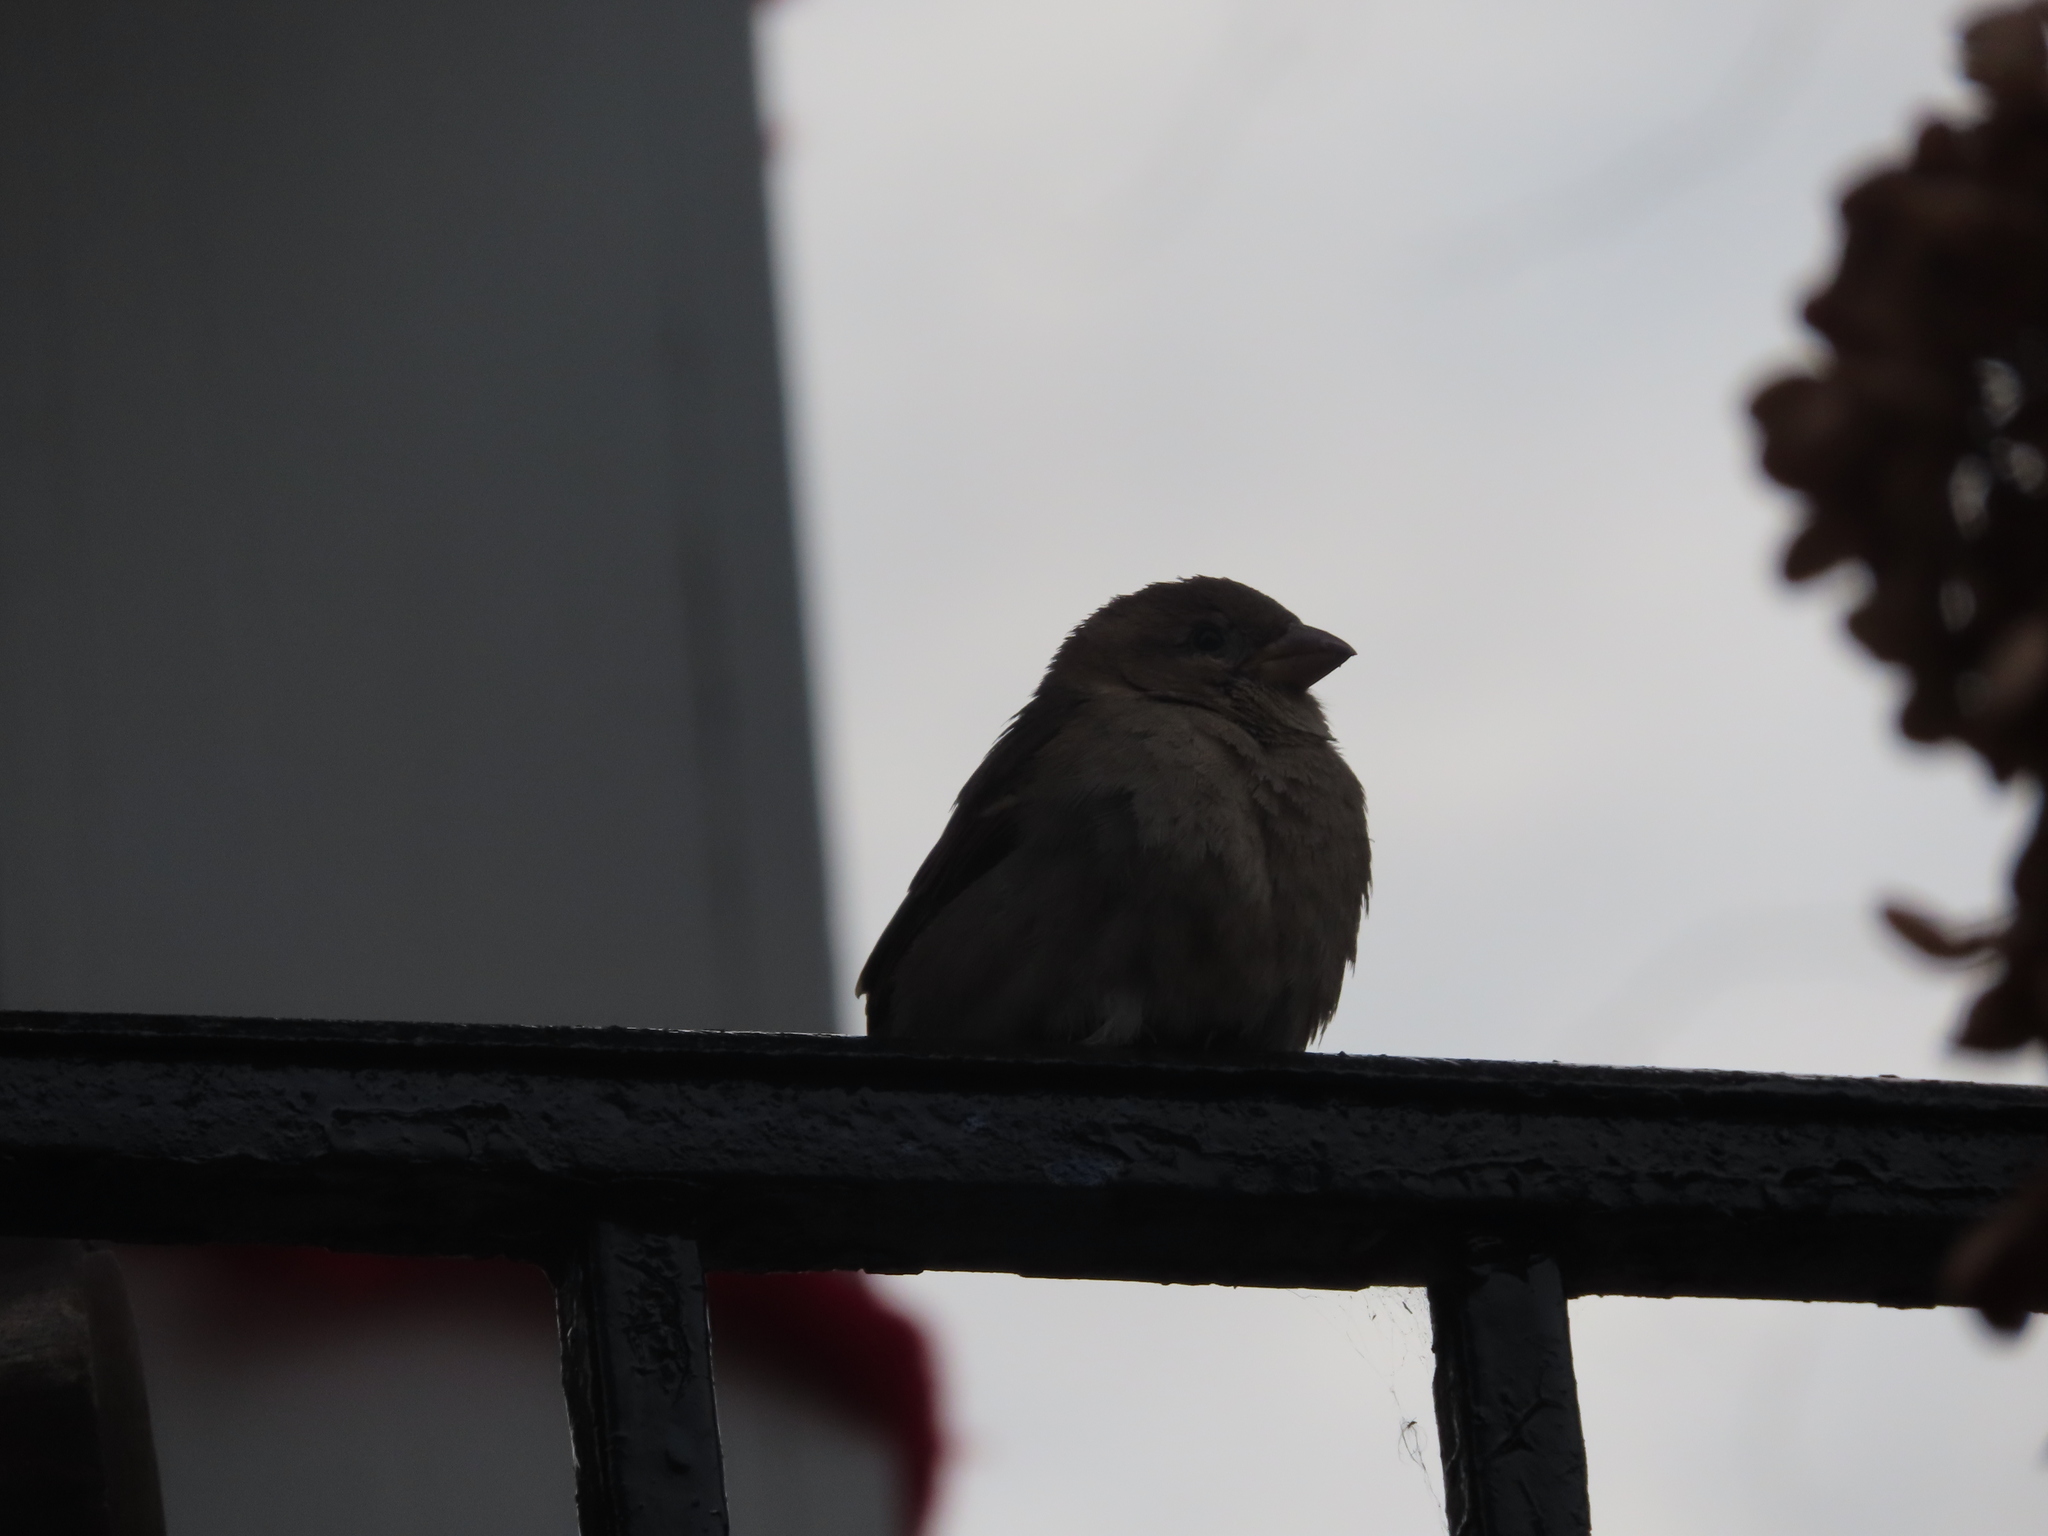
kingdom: Animalia
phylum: Chordata
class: Aves
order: Passeriformes
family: Passeridae
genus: Passer
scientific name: Passer domesticus
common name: House sparrow
